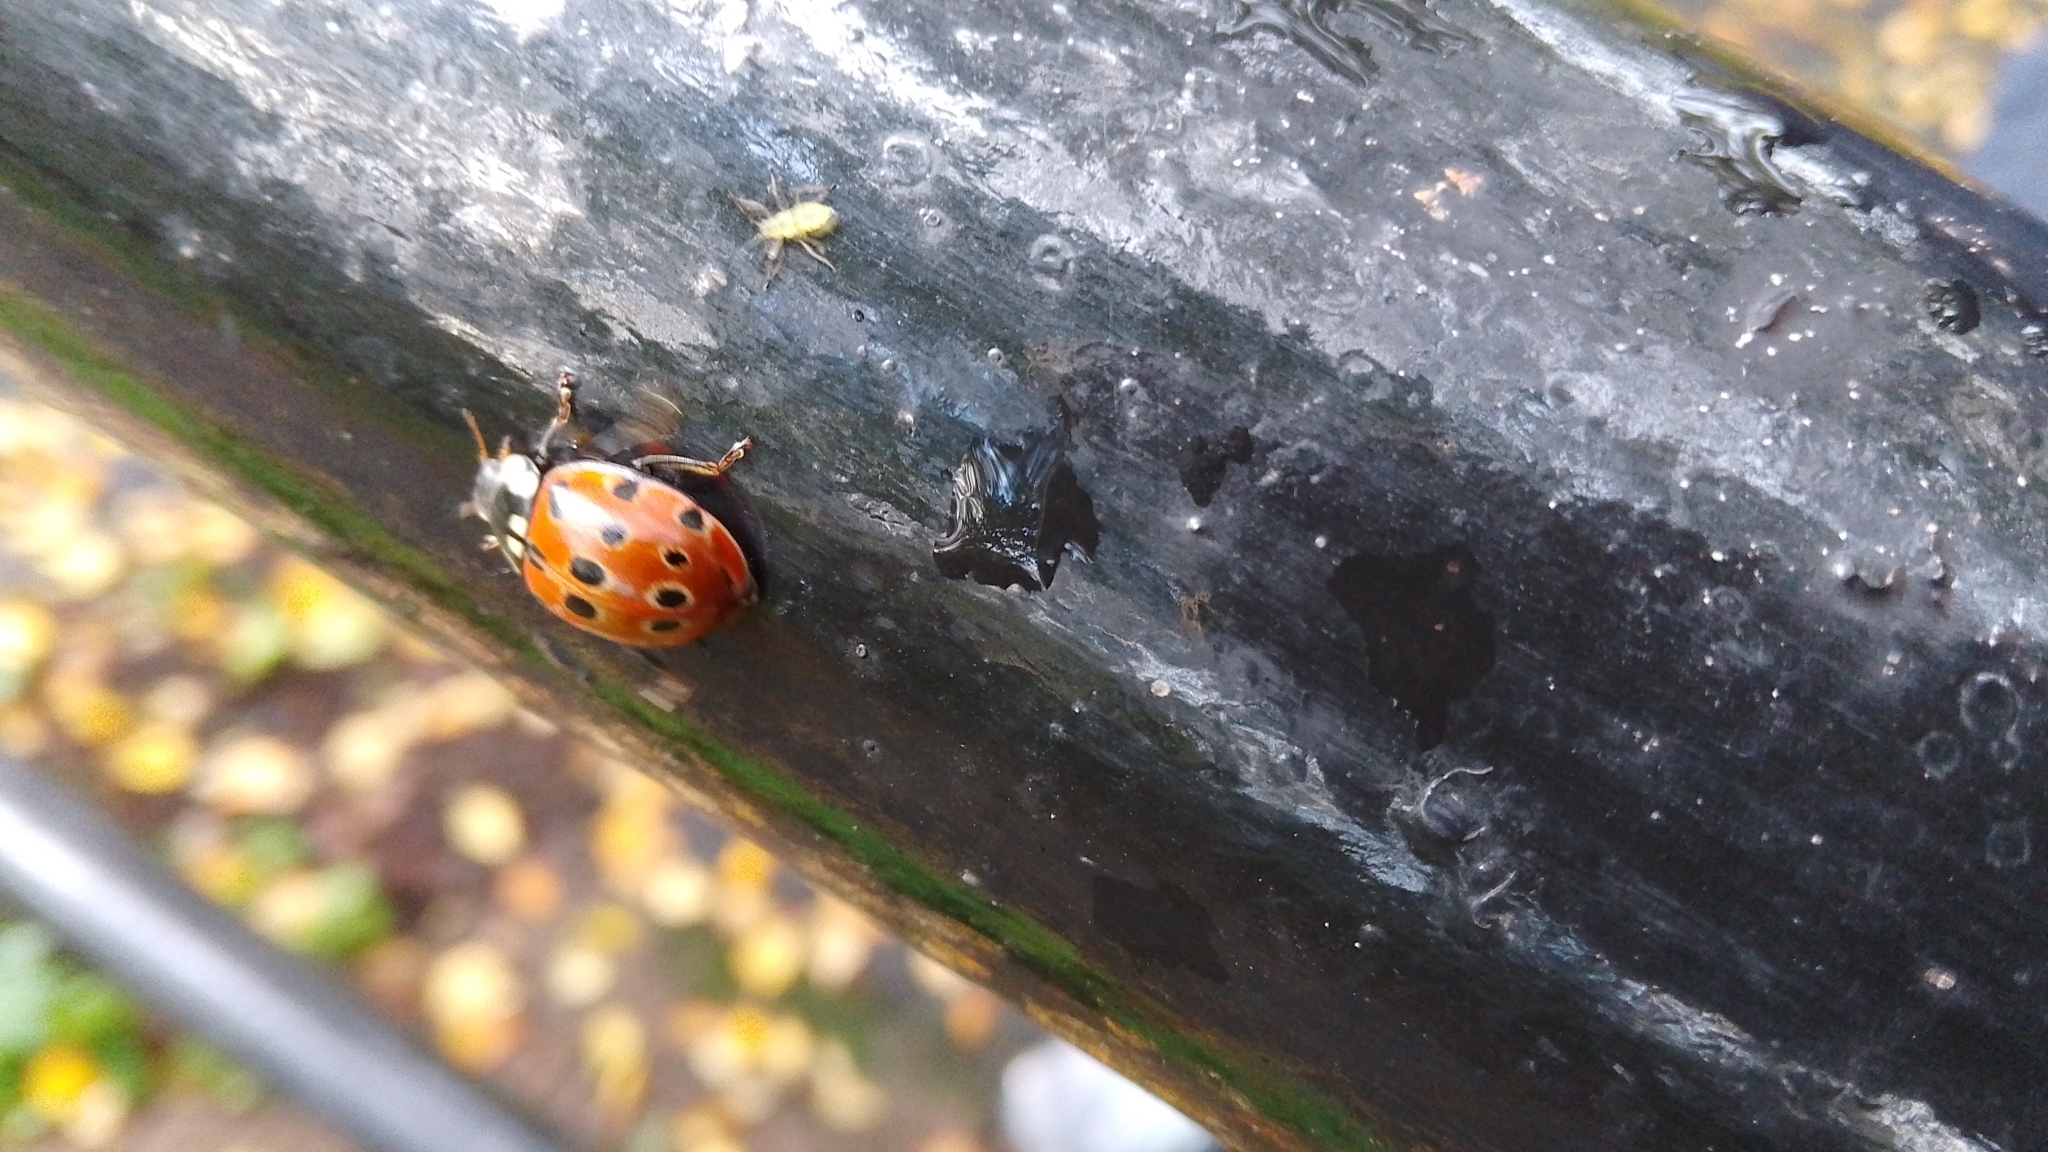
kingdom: Animalia
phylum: Arthropoda
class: Insecta
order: Coleoptera
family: Coccinellidae
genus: Anatis
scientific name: Anatis ocellata
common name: Eyed ladybird
